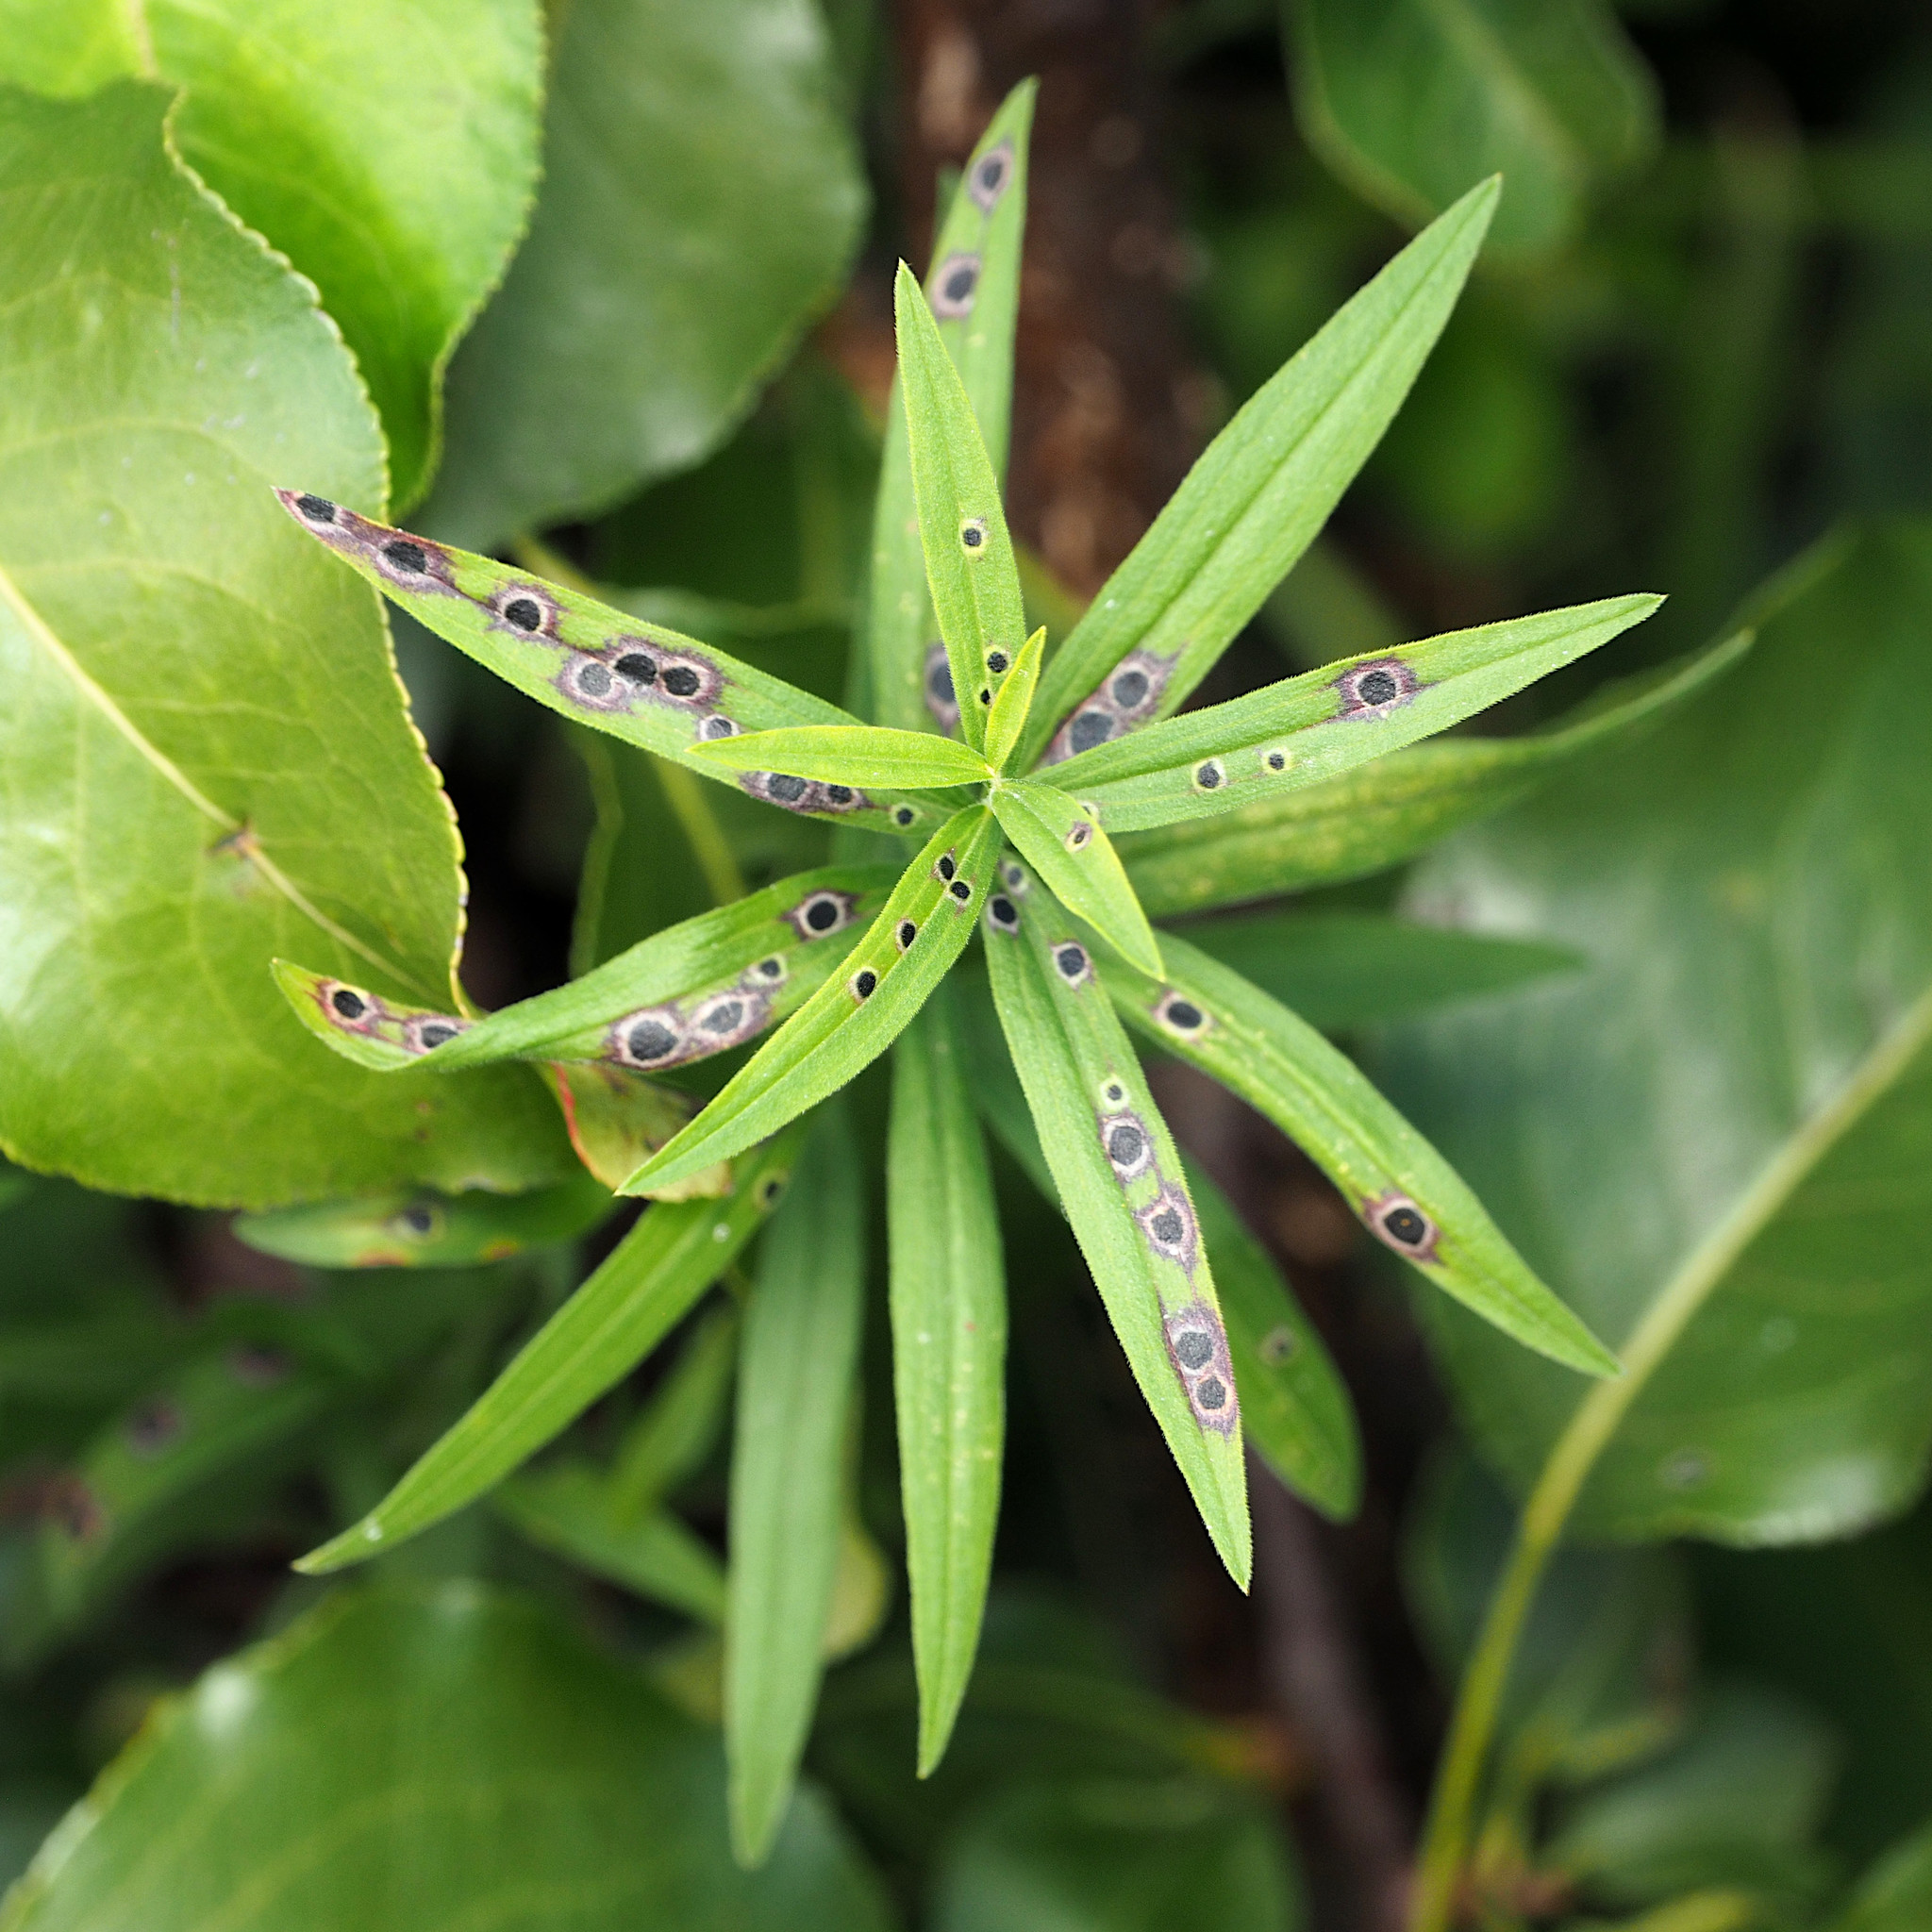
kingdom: Animalia
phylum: Arthropoda
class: Insecta
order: Diptera
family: Cecidomyiidae
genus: Asteromyia
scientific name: Asteromyia carbonifera
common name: Carbonifera goldenrod gall midge
